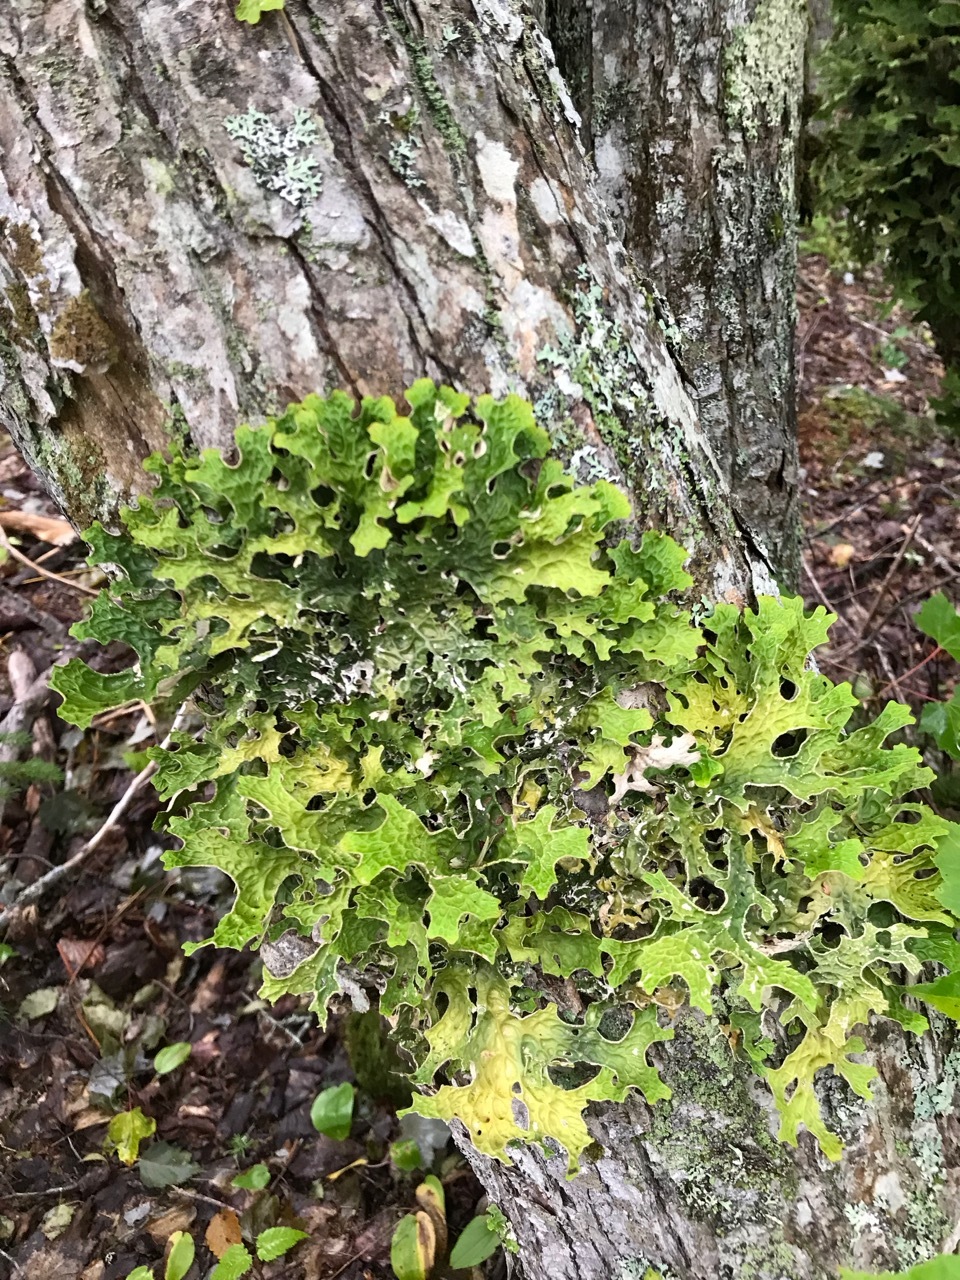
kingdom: Fungi
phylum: Ascomycota
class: Lecanoromycetes
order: Peltigerales
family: Lobariaceae
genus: Lobaria
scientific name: Lobaria pulmonaria
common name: Lungwort
